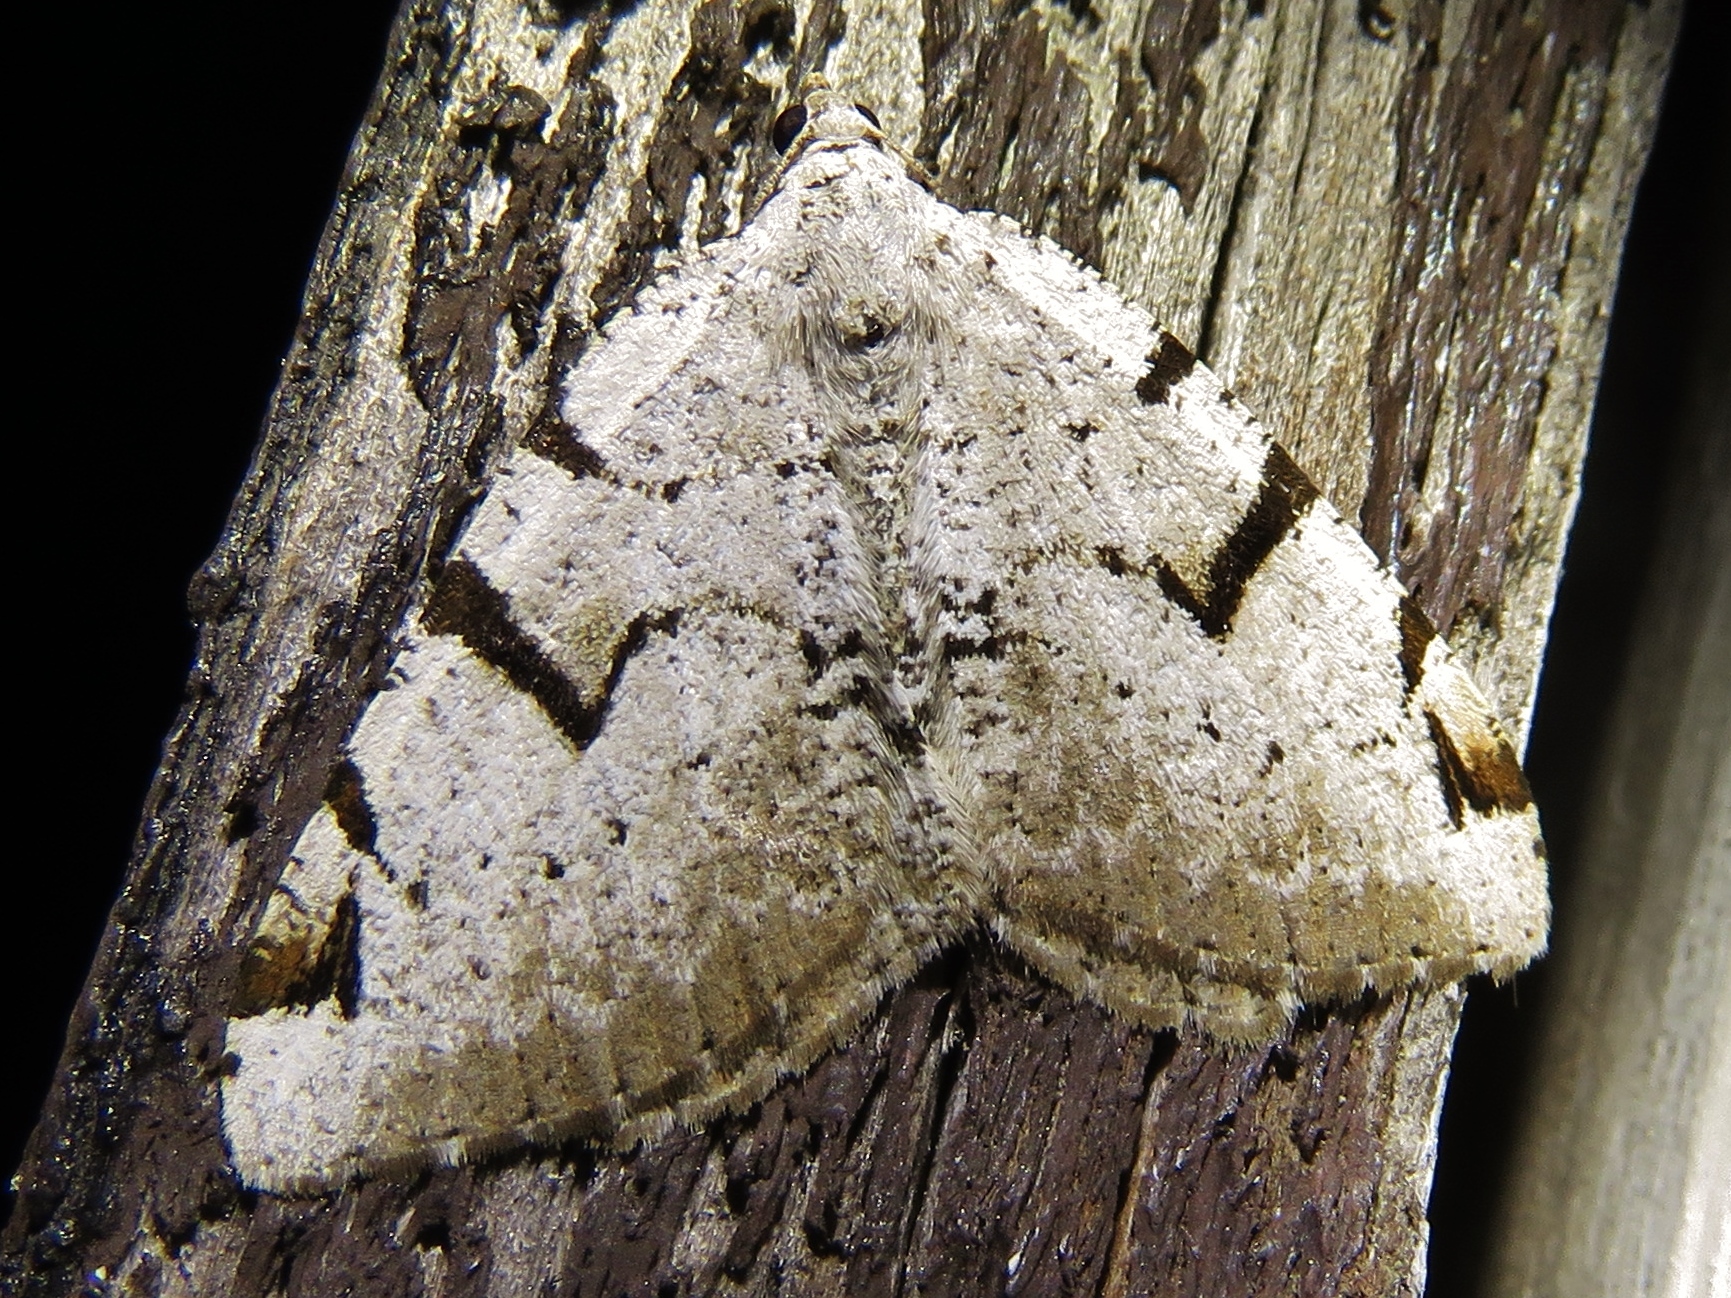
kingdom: Animalia
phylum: Arthropoda
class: Insecta
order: Lepidoptera
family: Geometridae
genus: Macaria
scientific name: Macaria wauaria
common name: V-moth
